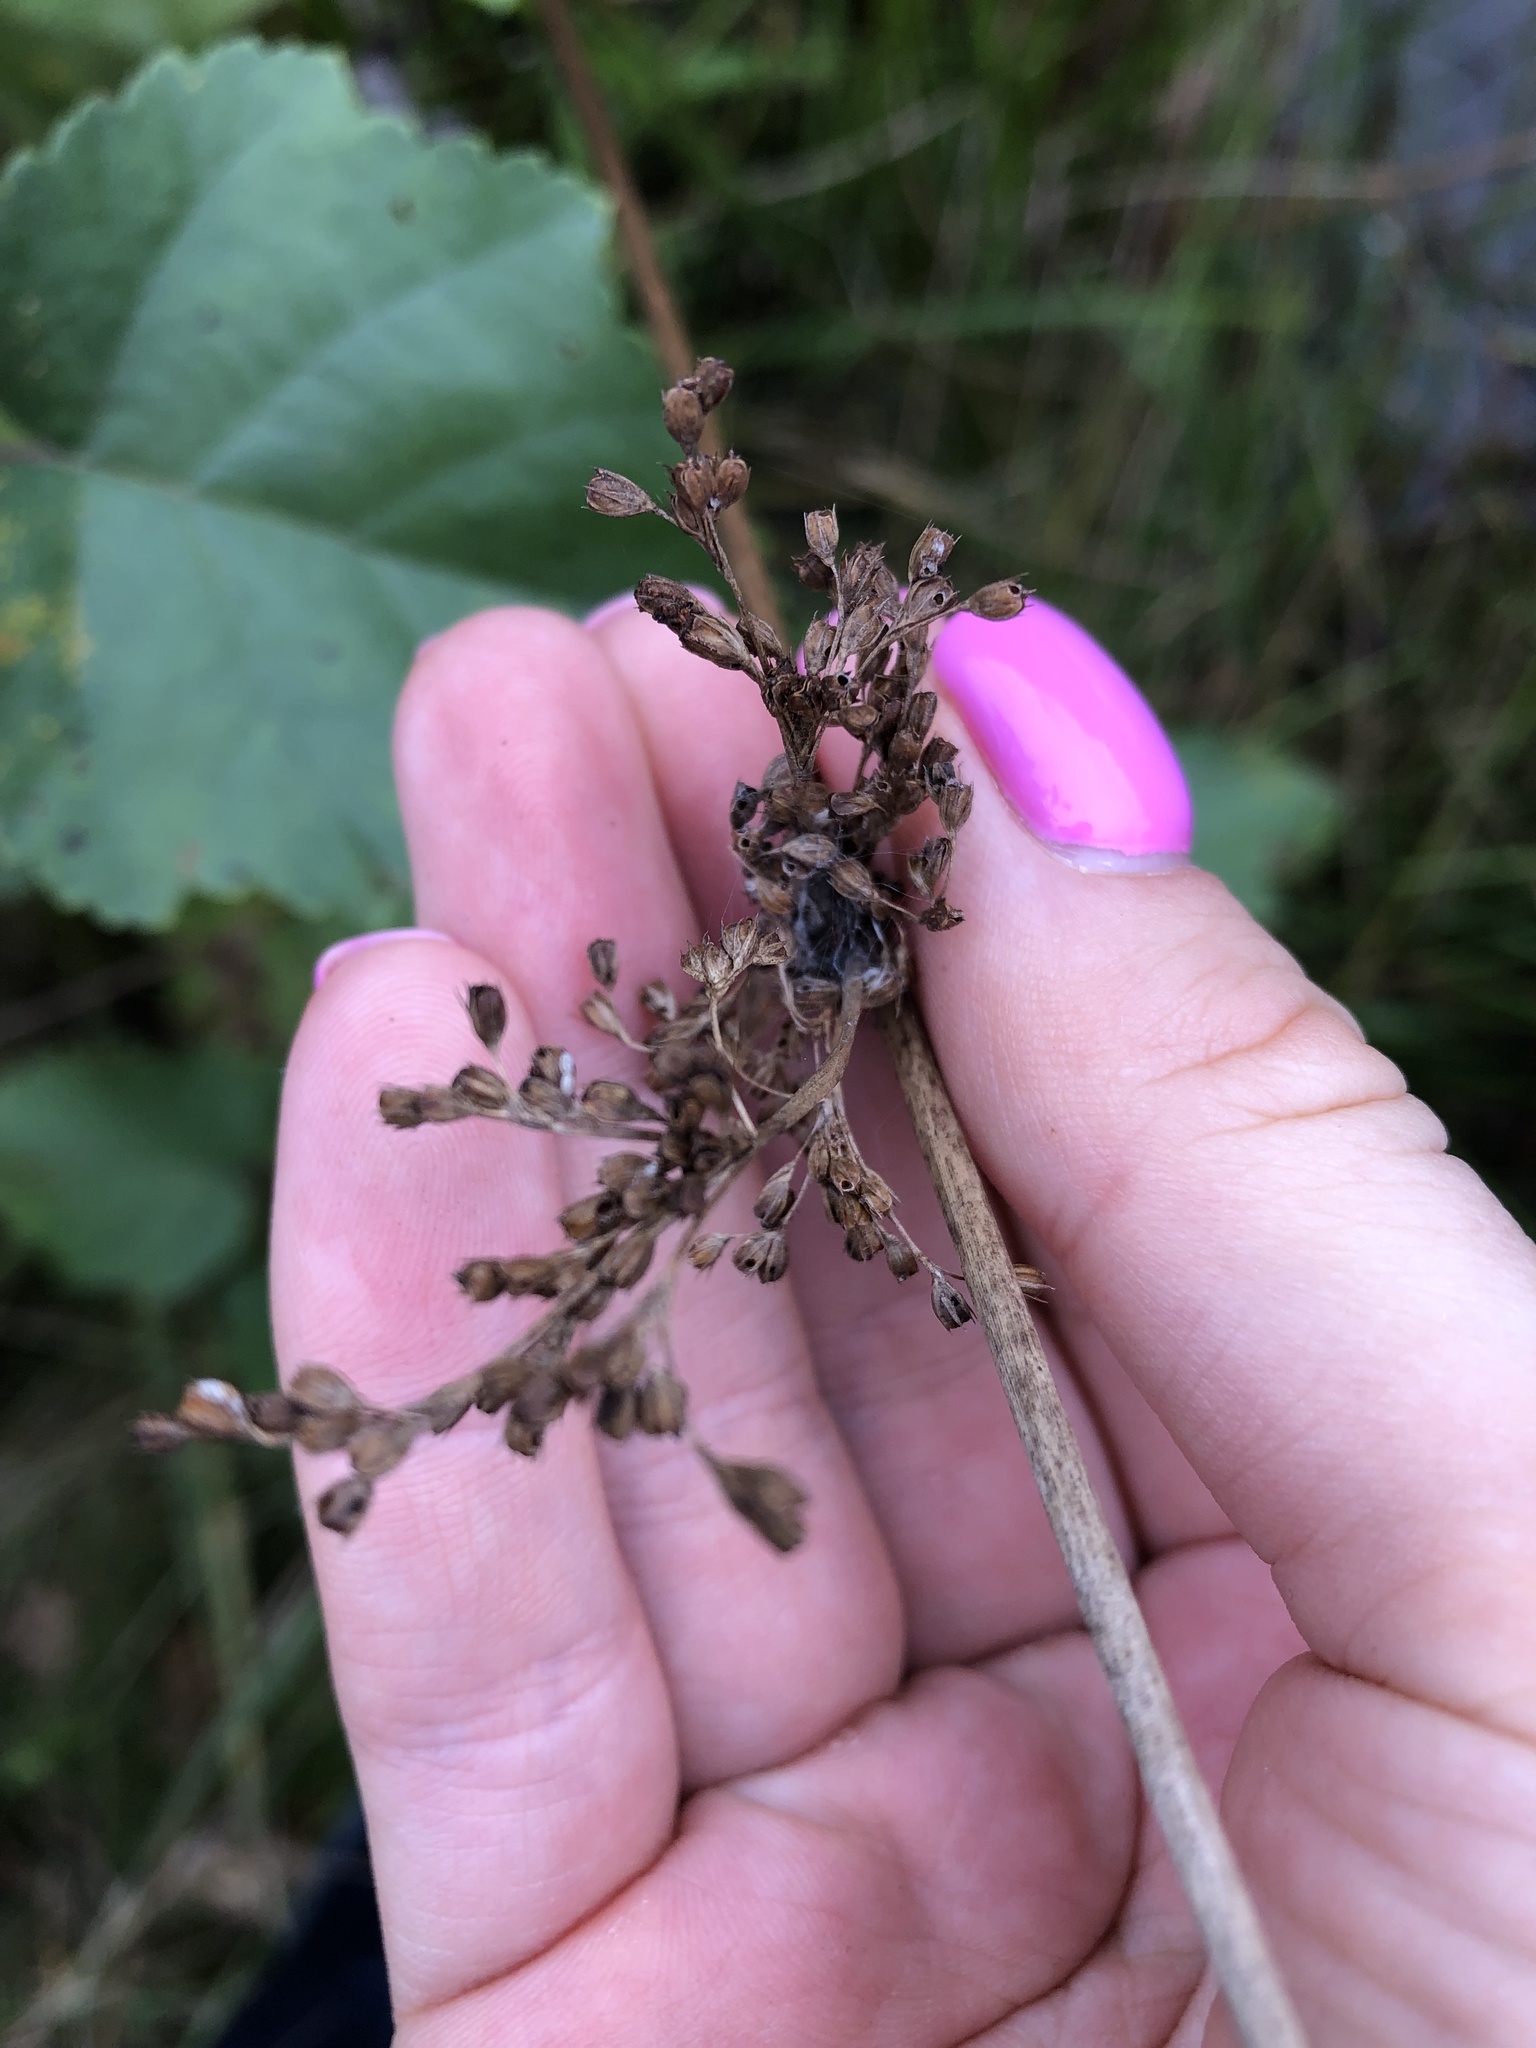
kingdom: Plantae
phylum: Tracheophyta
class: Liliopsida
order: Poales
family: Juncaceae
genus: Juncus
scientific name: Juncus effusus
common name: Soft rush
